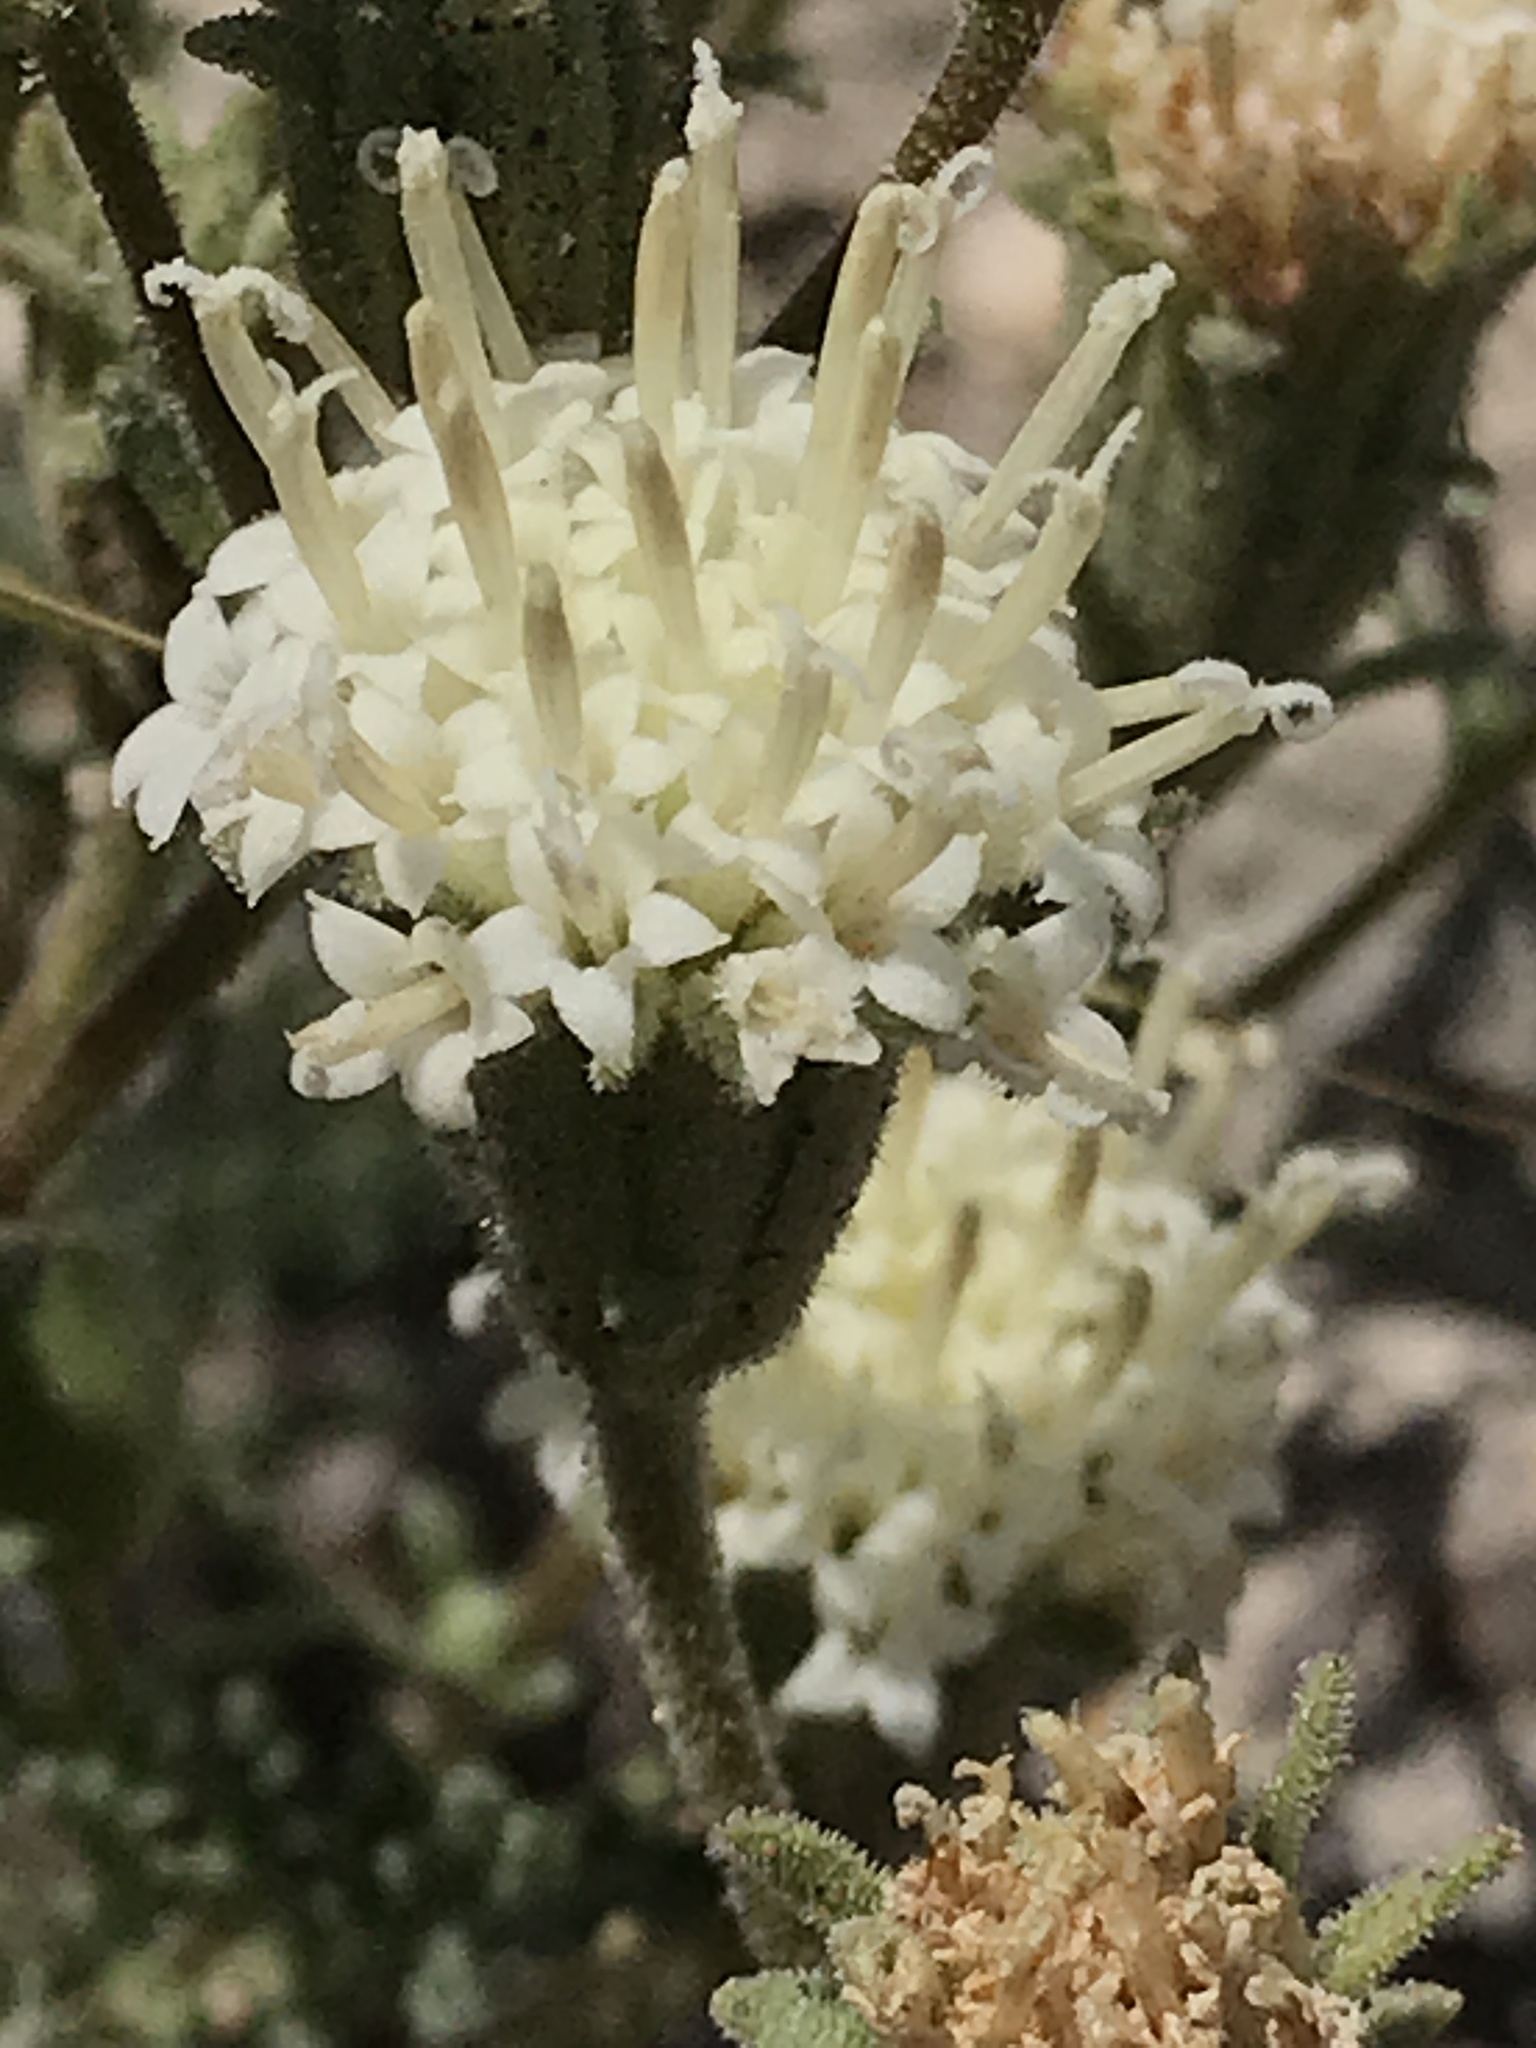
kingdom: Plantae
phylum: Tracheophyta
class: Magnoliopsida
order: Asterales
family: Asteraceae
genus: Chaenactis
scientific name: Chaenactis douglasii
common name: Hoary pincushion
